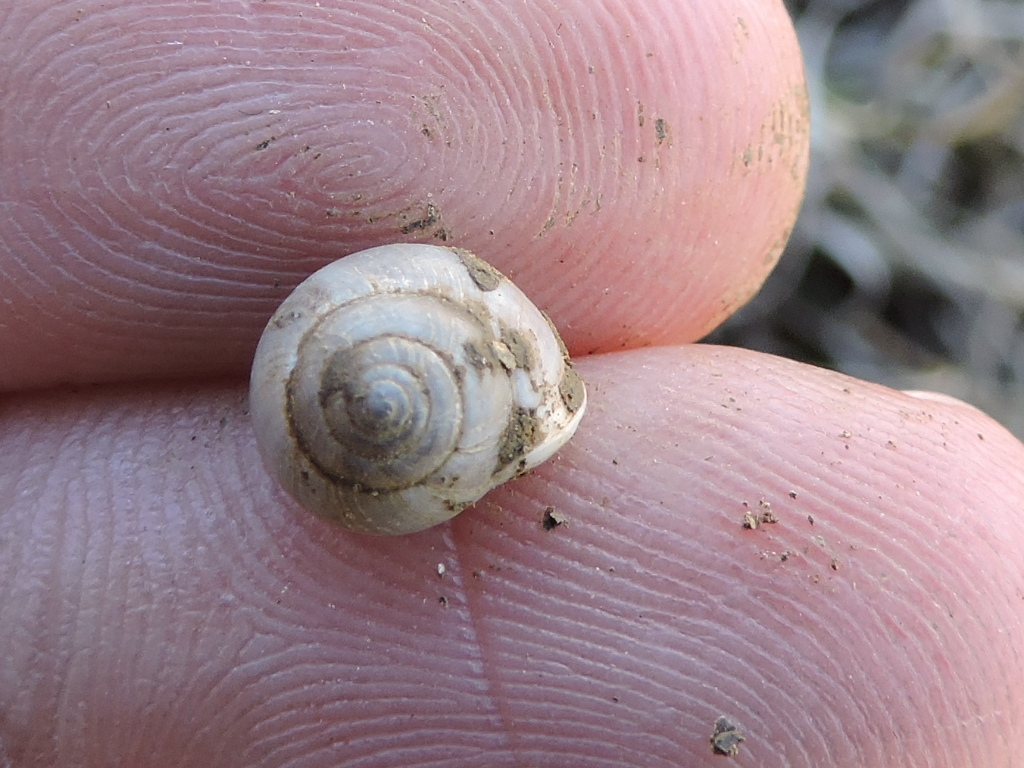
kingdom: Animalia
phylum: Mollusca
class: Gastropoda
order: Cycloneritida
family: Helicinidae
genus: Helicina
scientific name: Helicina orbiculata
